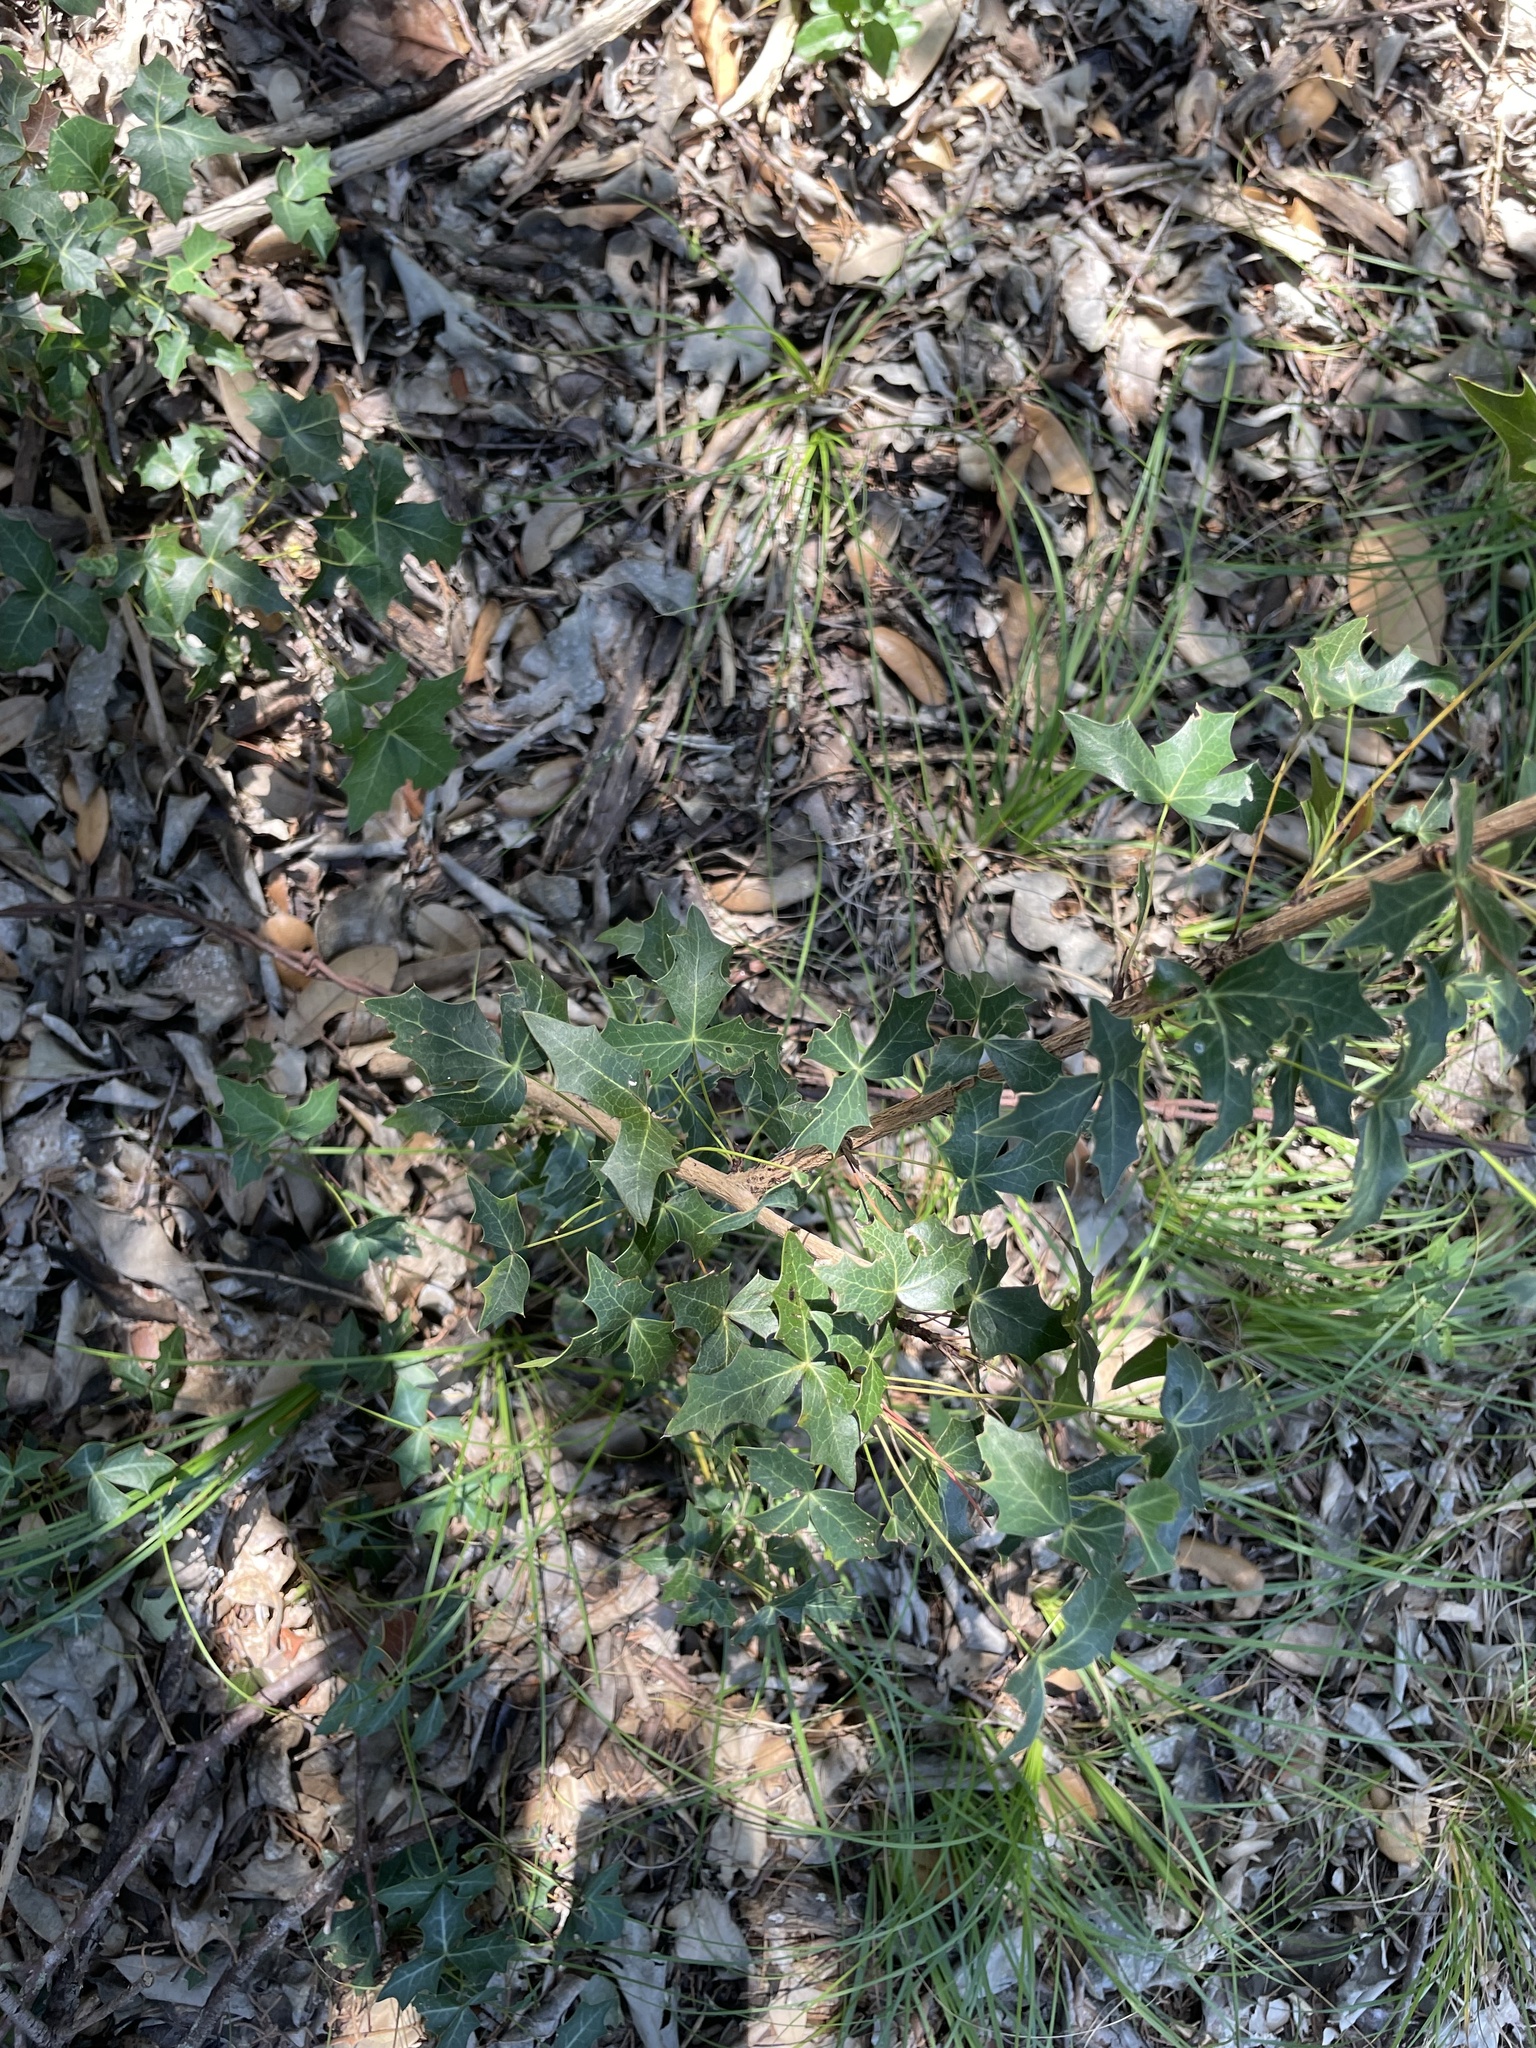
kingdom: Plantae
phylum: Tracheophyta
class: Magnoliopsida
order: Ranunculales
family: Berberidaceae
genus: Alloberberis
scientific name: Alloberberis trifoliolata
